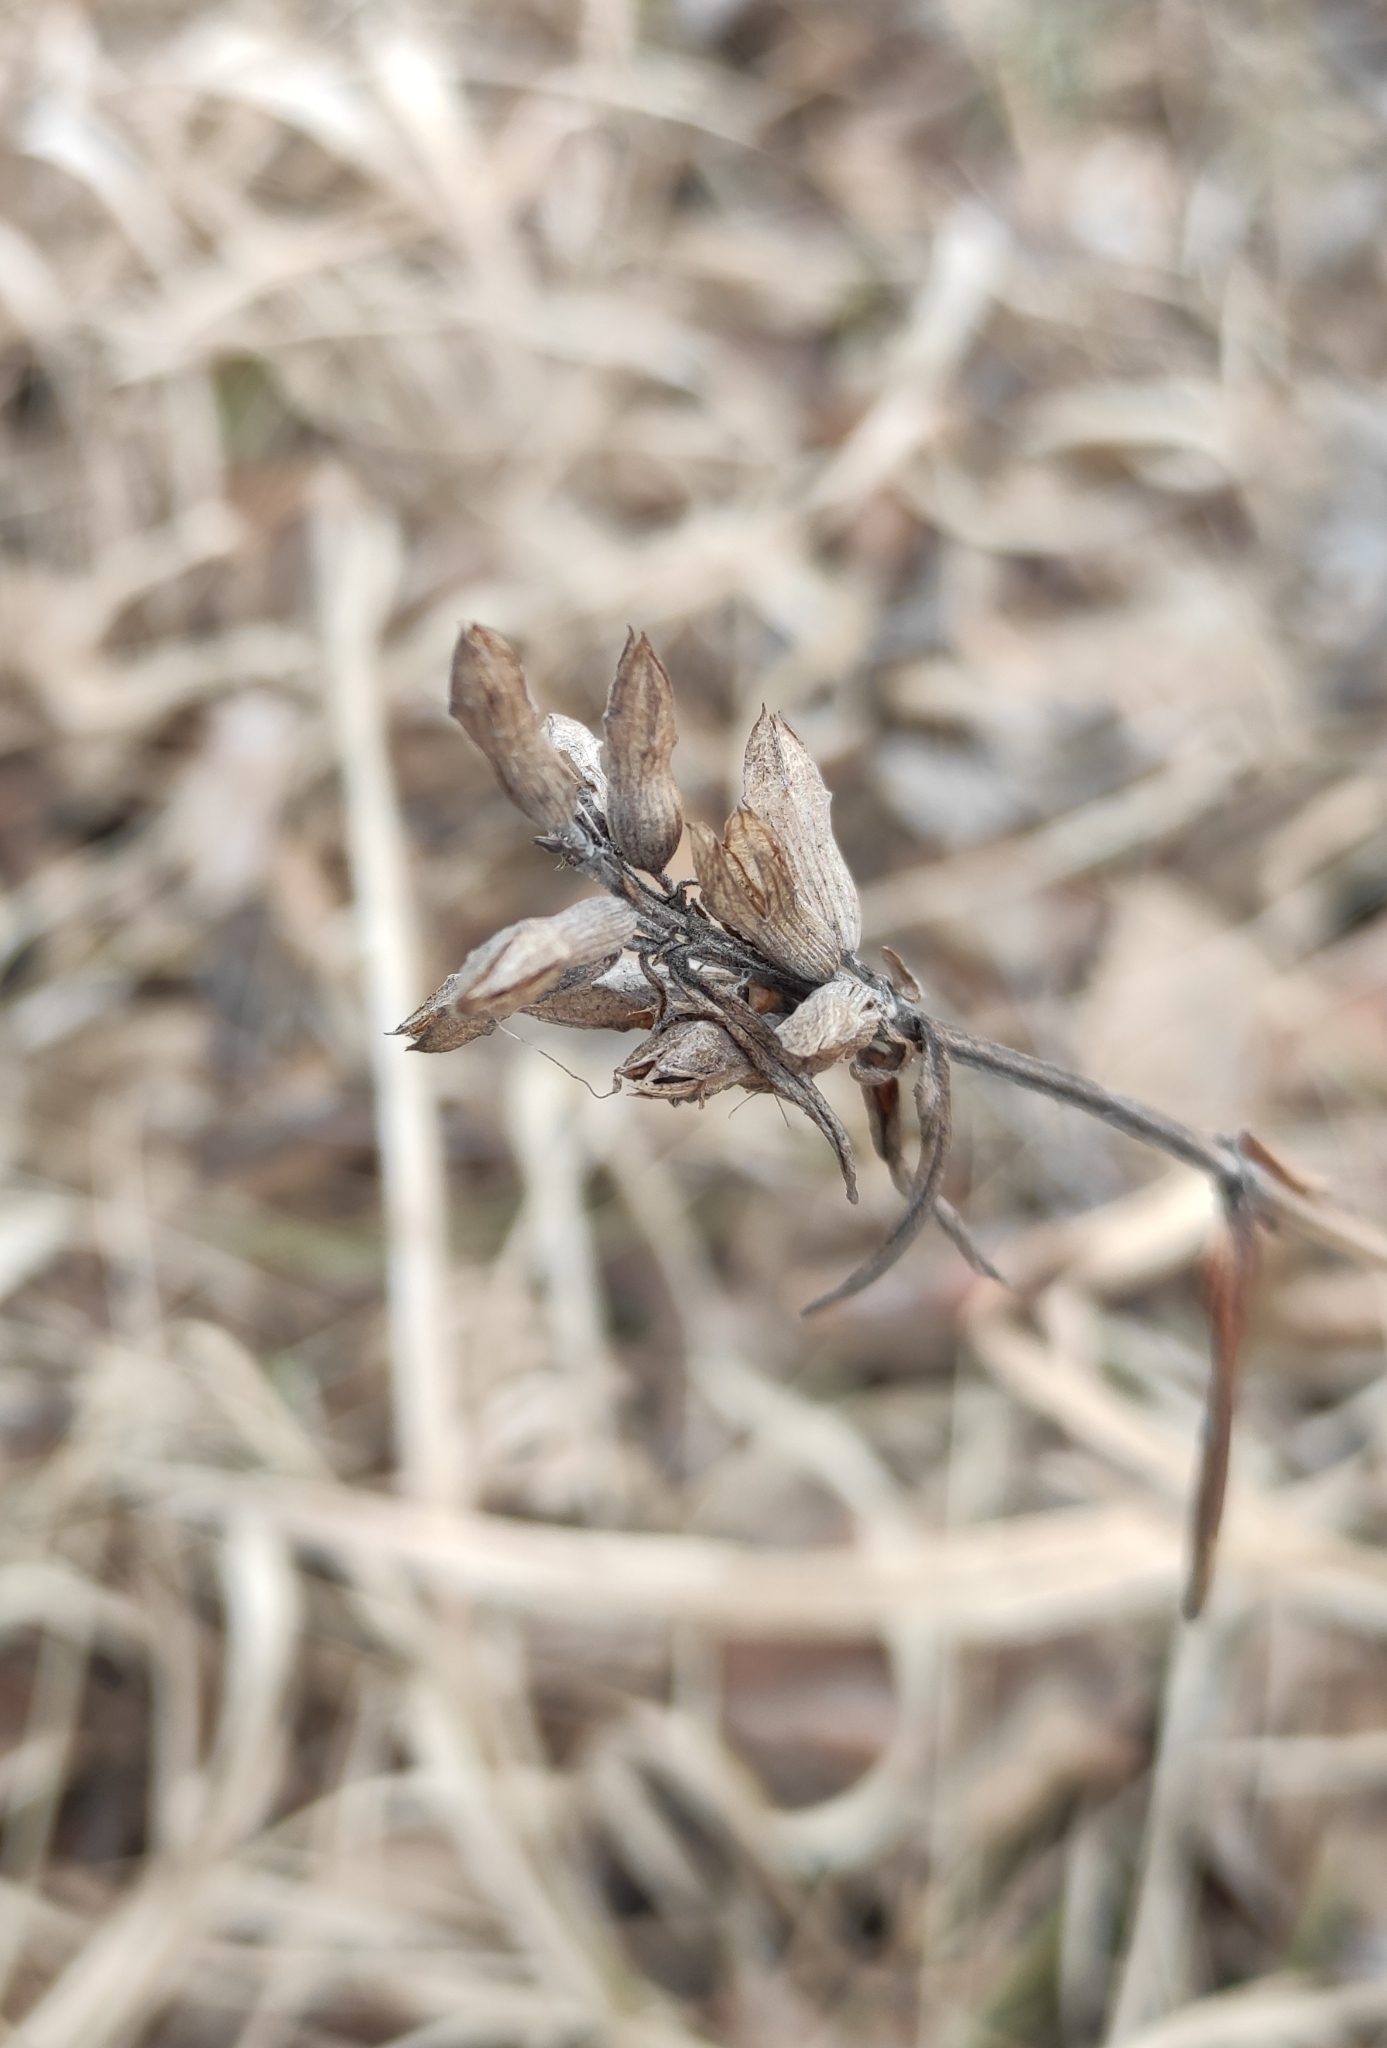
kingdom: Plantae
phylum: Tracheophyta
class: Magnoliopsida
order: Lamiales
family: Lamiaceae
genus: Dracocephalum
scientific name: Dracocephalum ruyschiana
